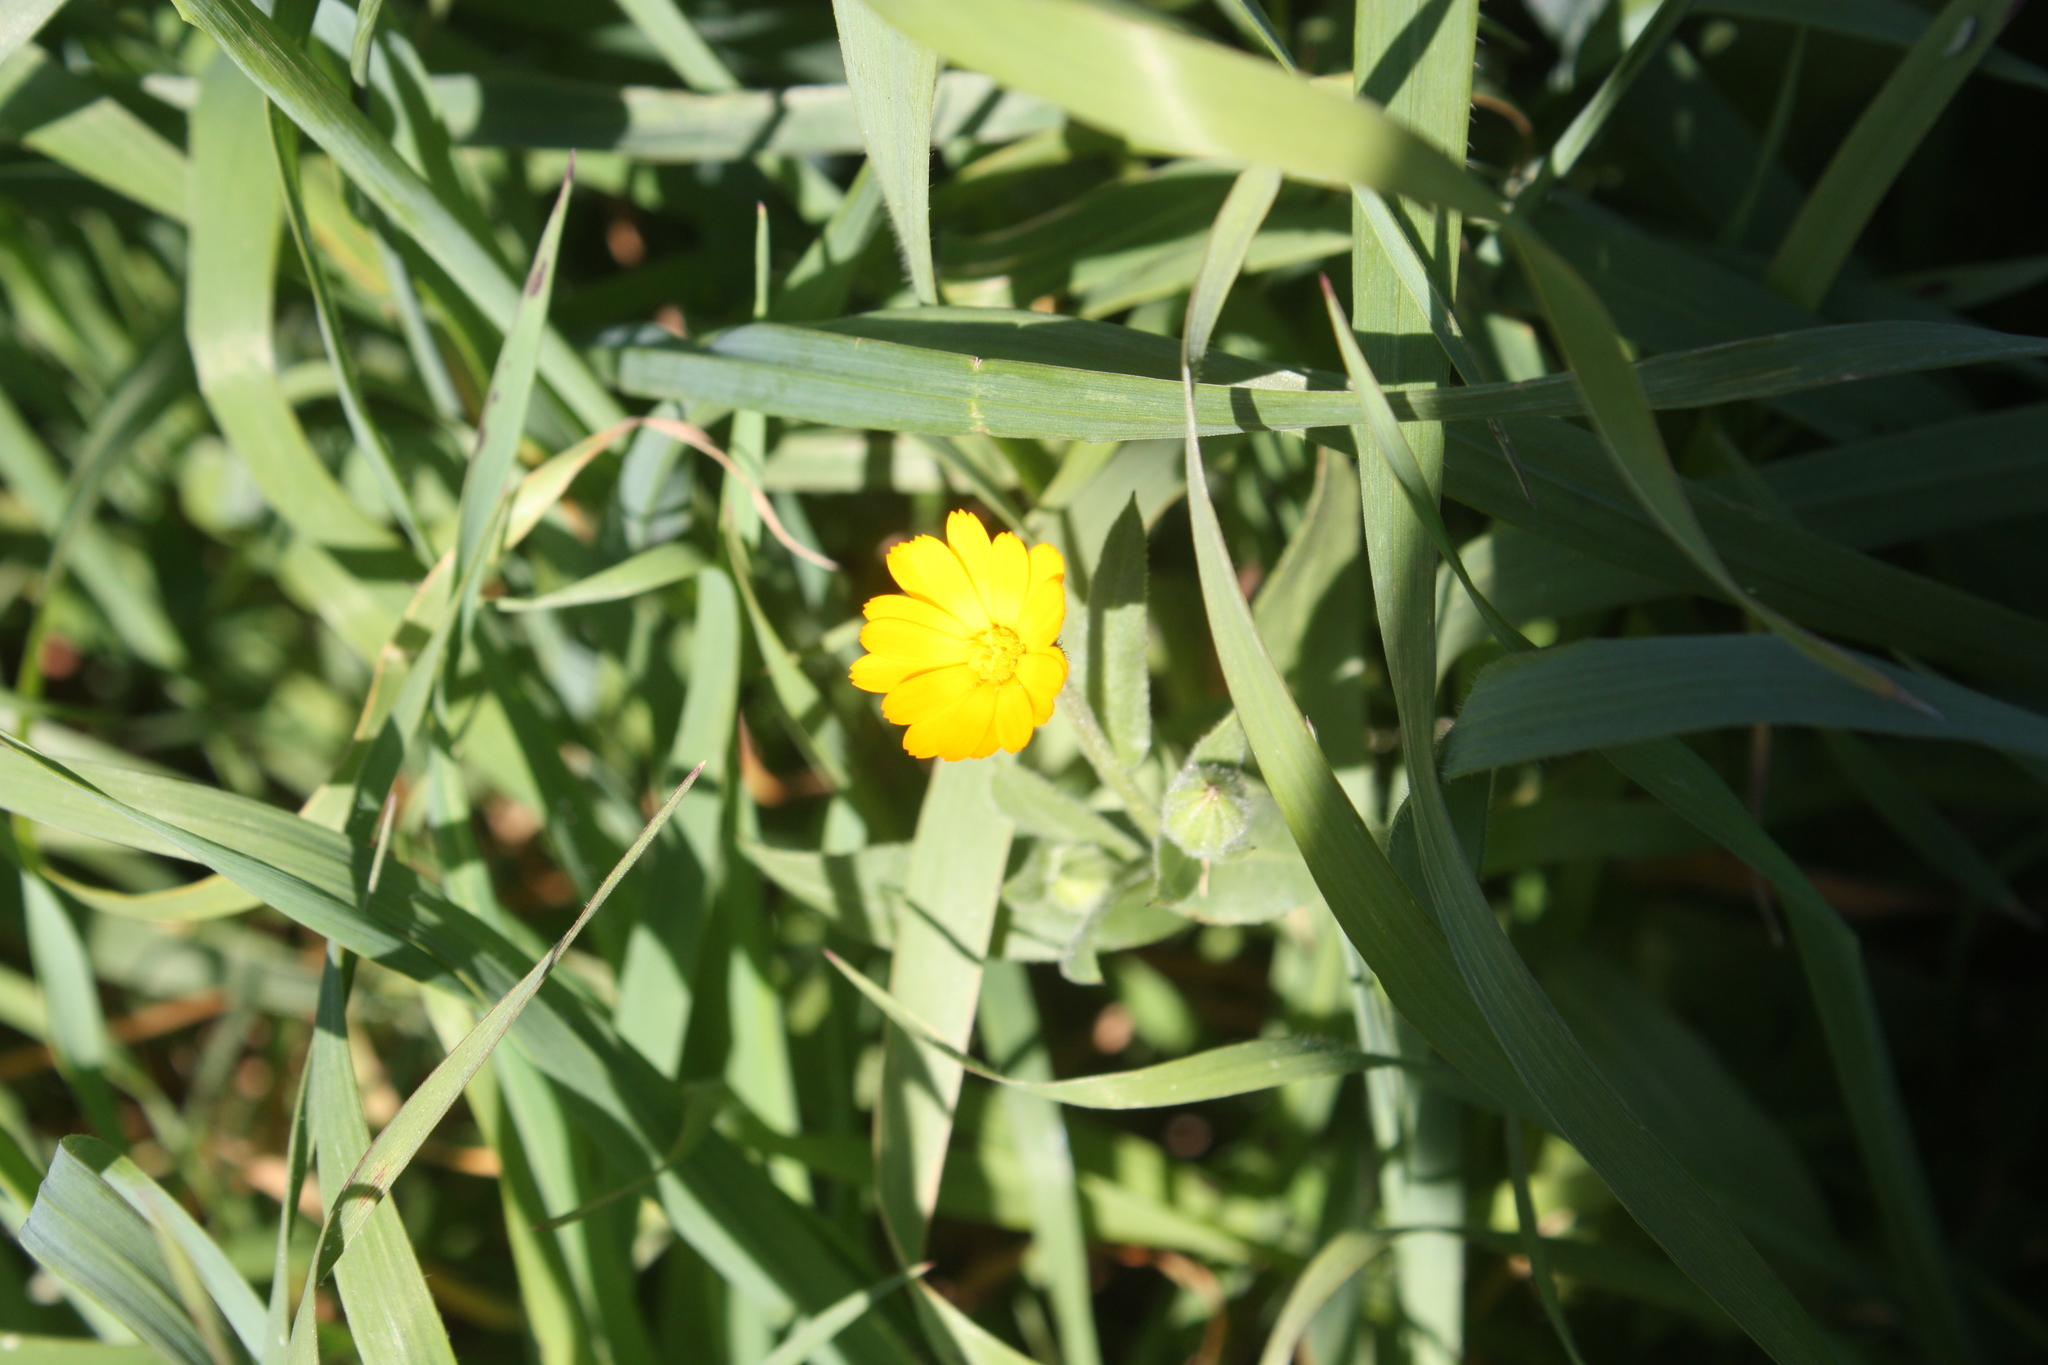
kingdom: Plantae
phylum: Tracheophyta
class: Magnoliopsida
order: Asterales
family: Asteraceae
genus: Calendula
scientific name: Calendula arvensis
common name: Field marigold
